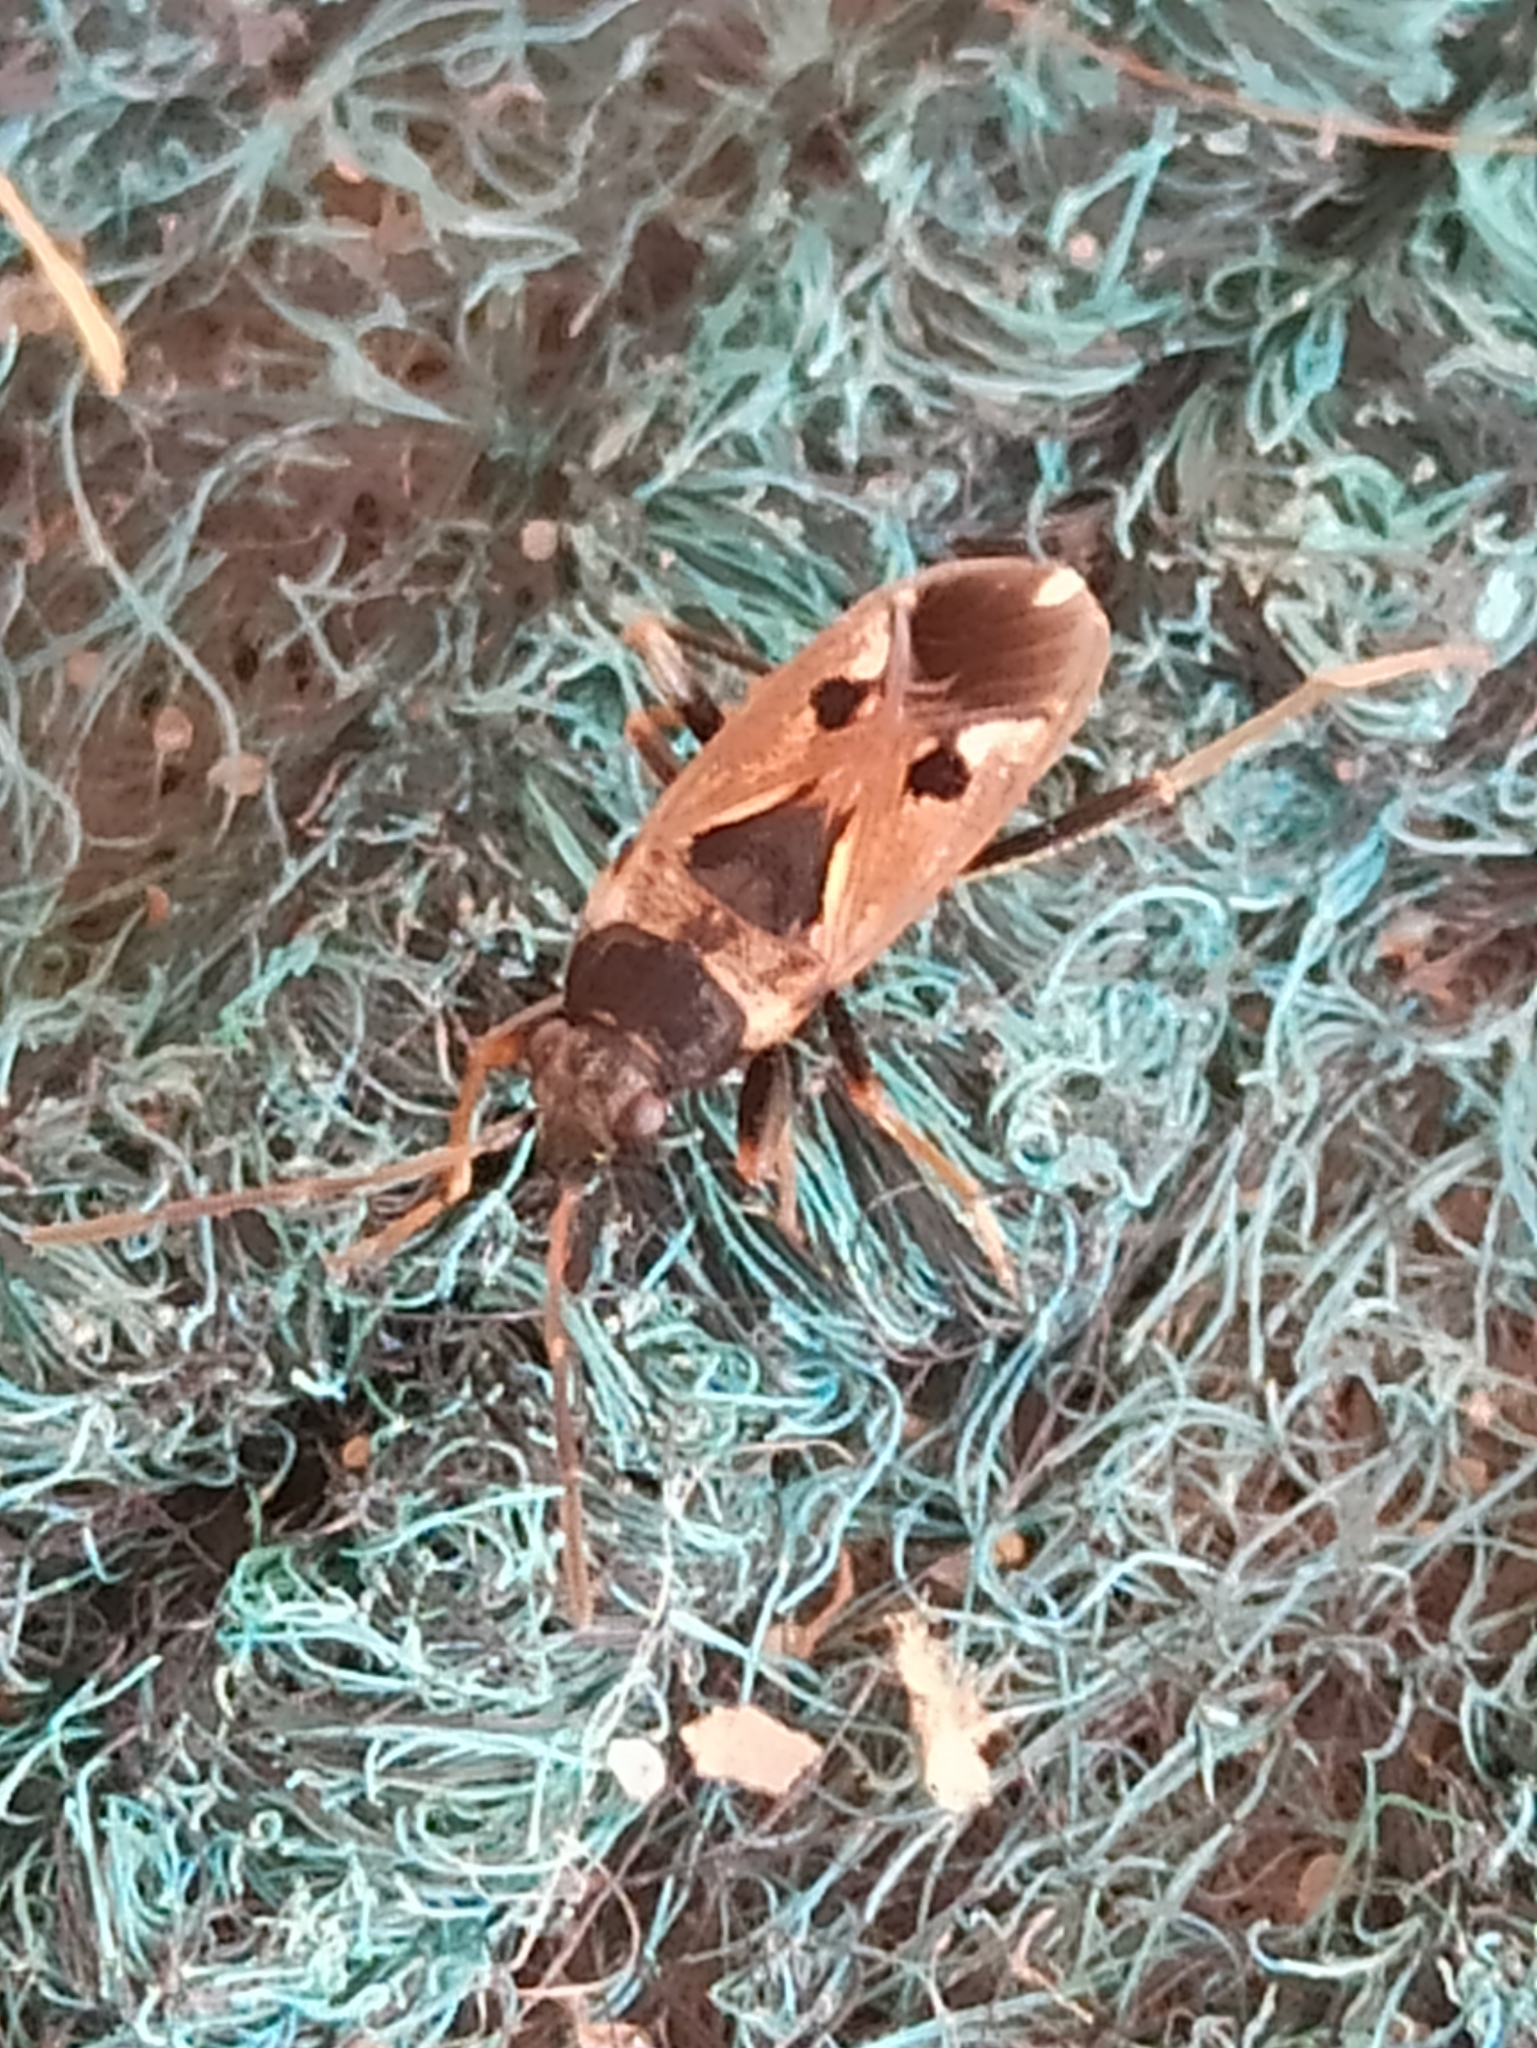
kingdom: Animalia
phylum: Arthropoda
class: Insecta
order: Hemiptera
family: Rhyparochromidae
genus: Rhyparochromus
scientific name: Rhyparochromus vulgaris
